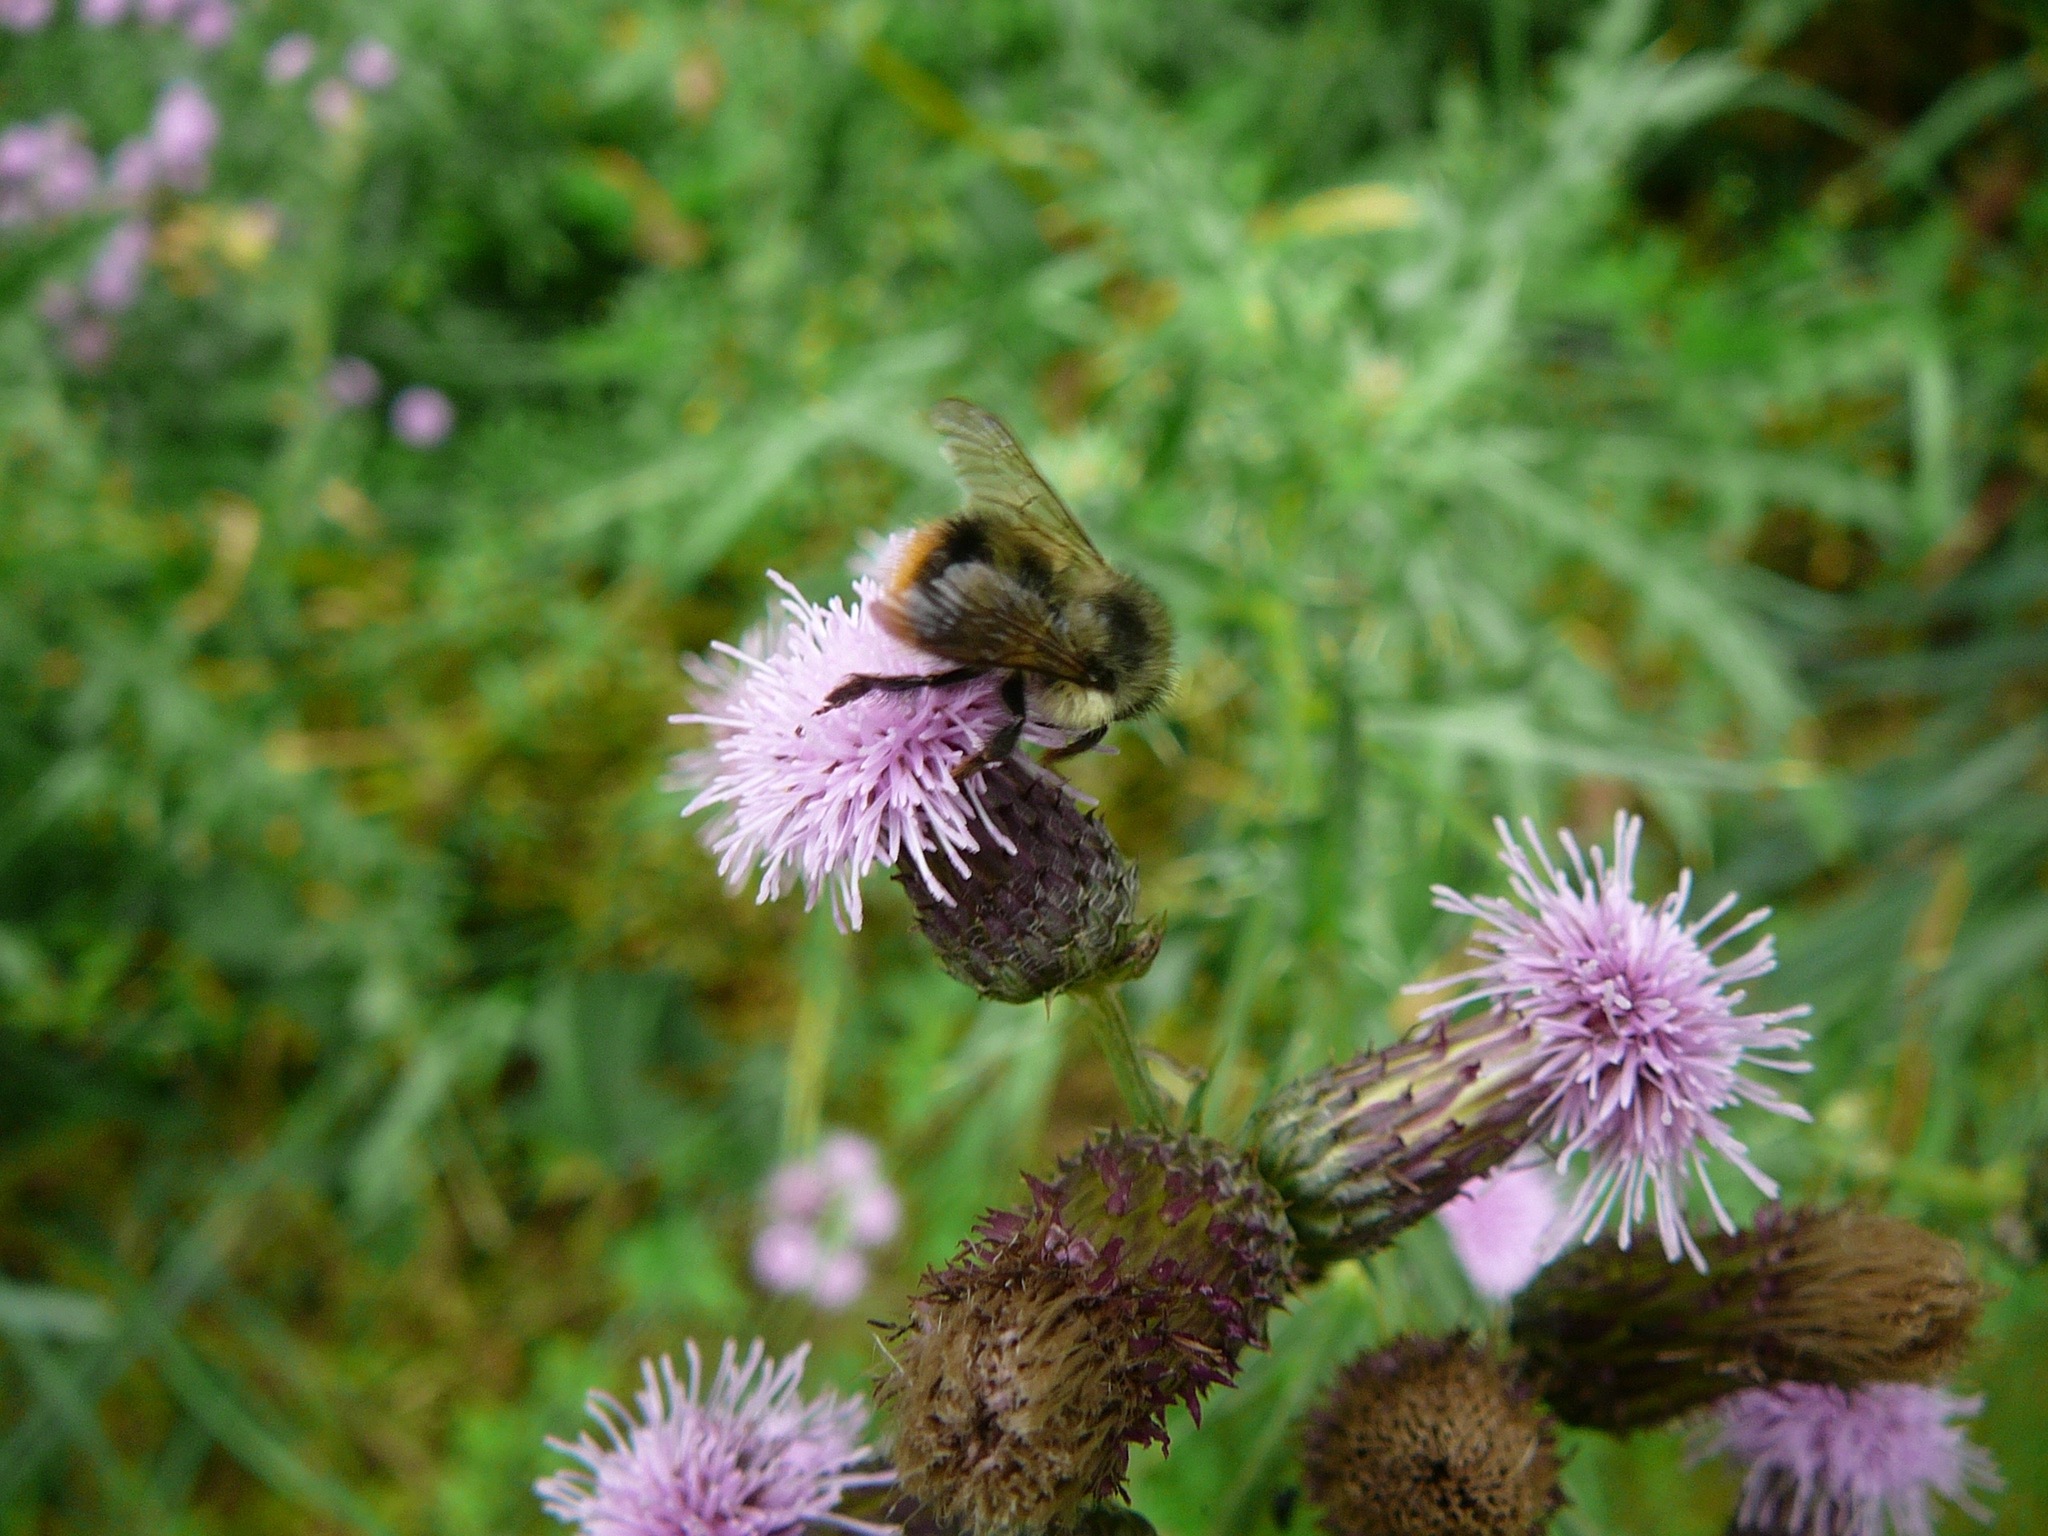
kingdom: Animalia
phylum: Arthropoda
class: Insecta
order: Hymenoptera
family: Apidae
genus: Bombus
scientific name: Bombus mixtus
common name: Fuzzy-horned bumble bee
